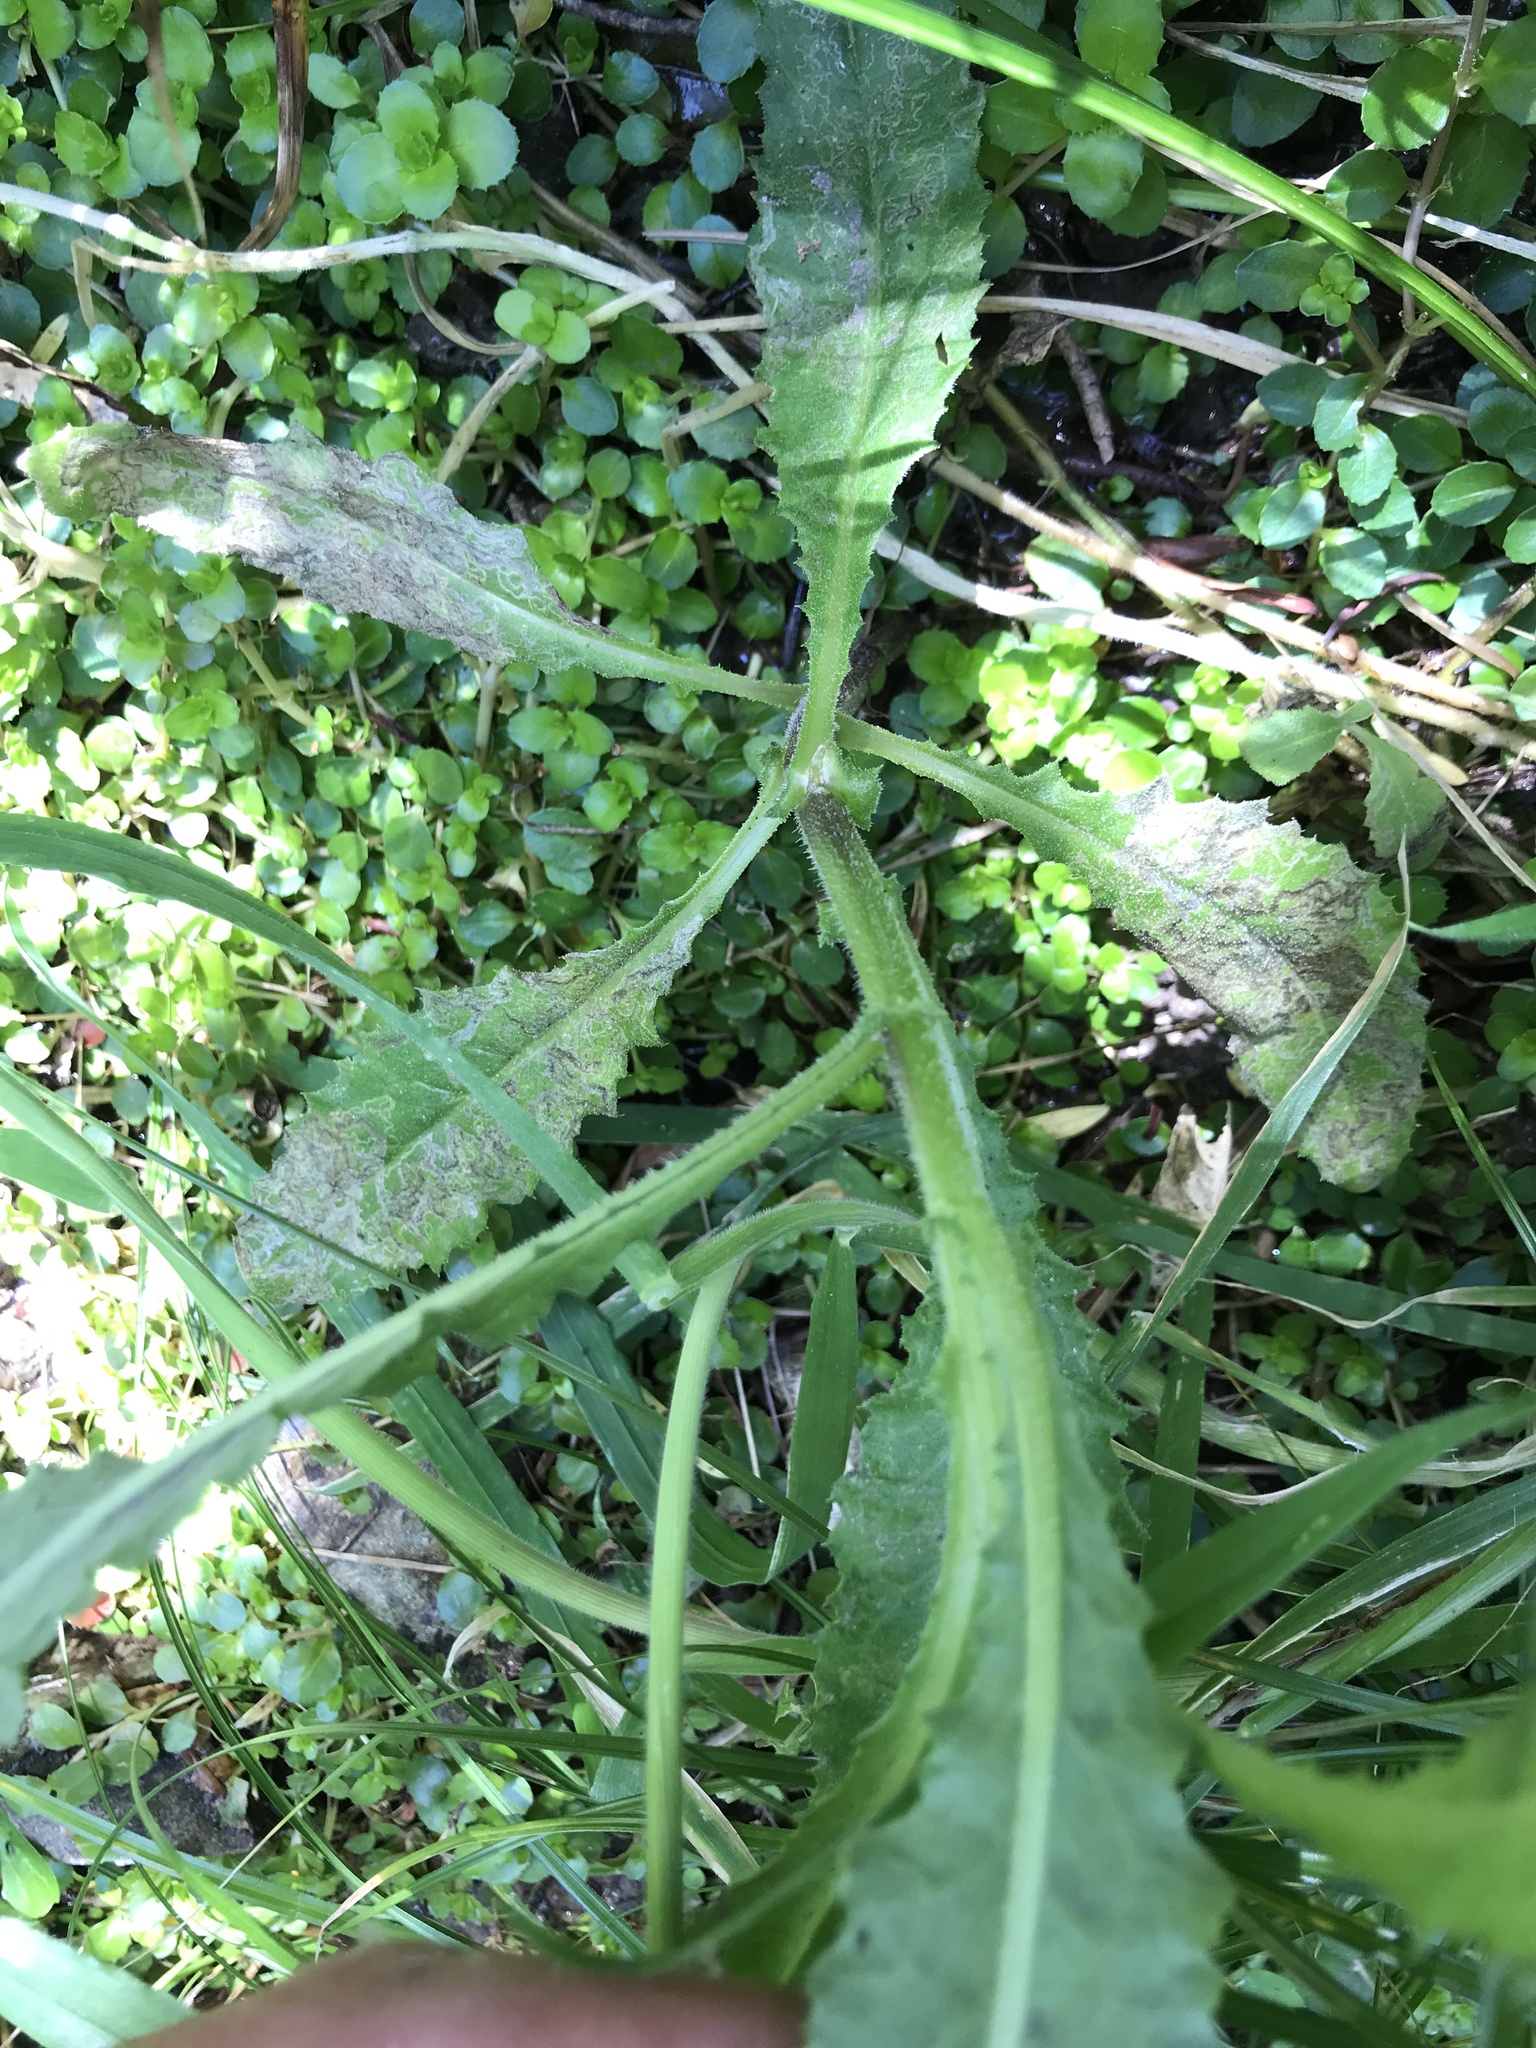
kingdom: Animalia
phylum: Arthropoda
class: Insecta
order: Lepidoptera
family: Nepticulidae
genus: Stigmella
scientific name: Stigmella ogygia
